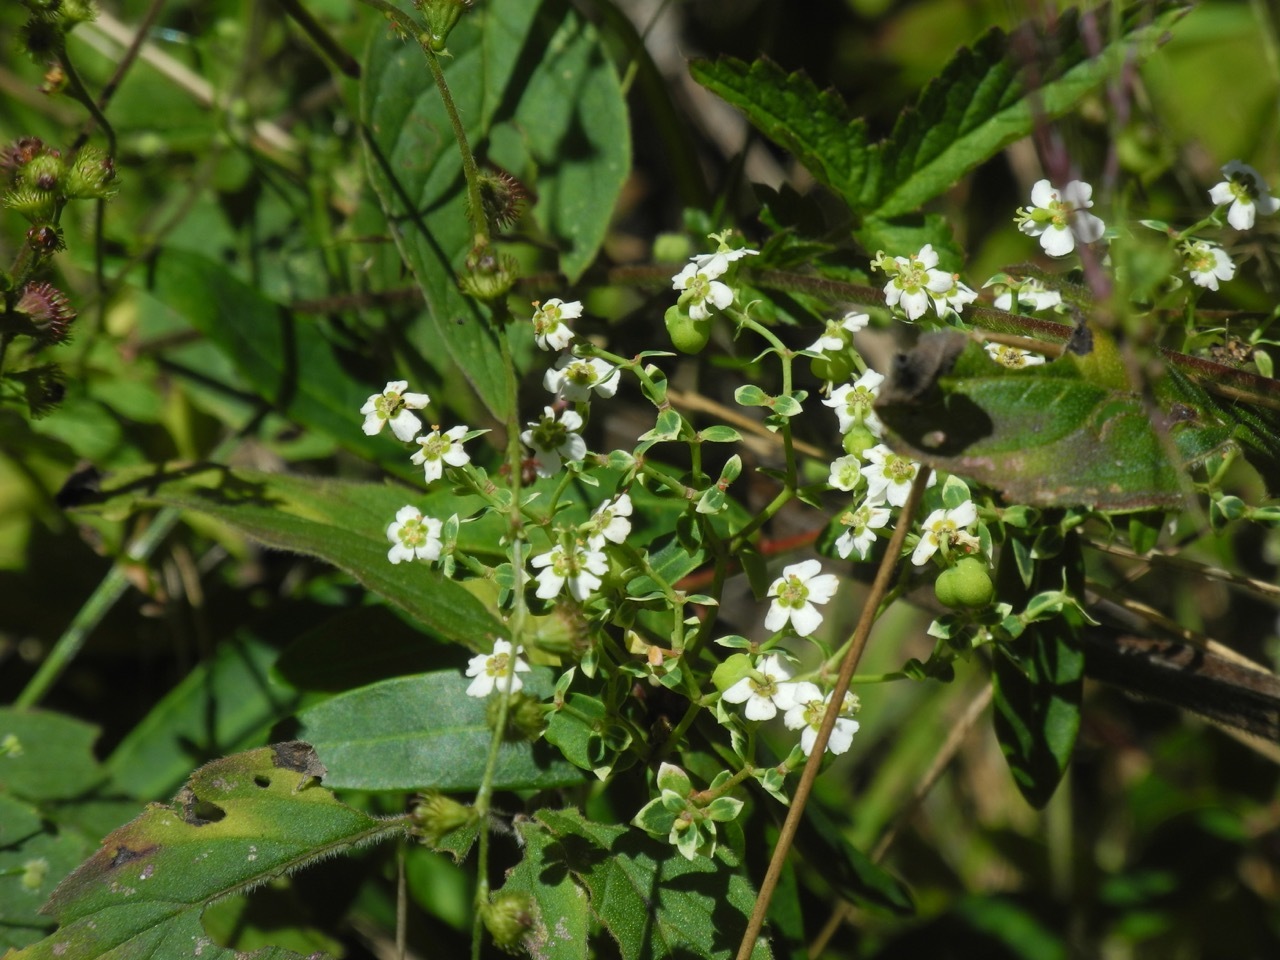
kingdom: Plantae
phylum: Tracheophyta
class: Magnoliopsida
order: Malpighiales
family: Euphorbiaceae
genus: Euphorbia
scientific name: Euphorbia corollata
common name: Flowering spurge
